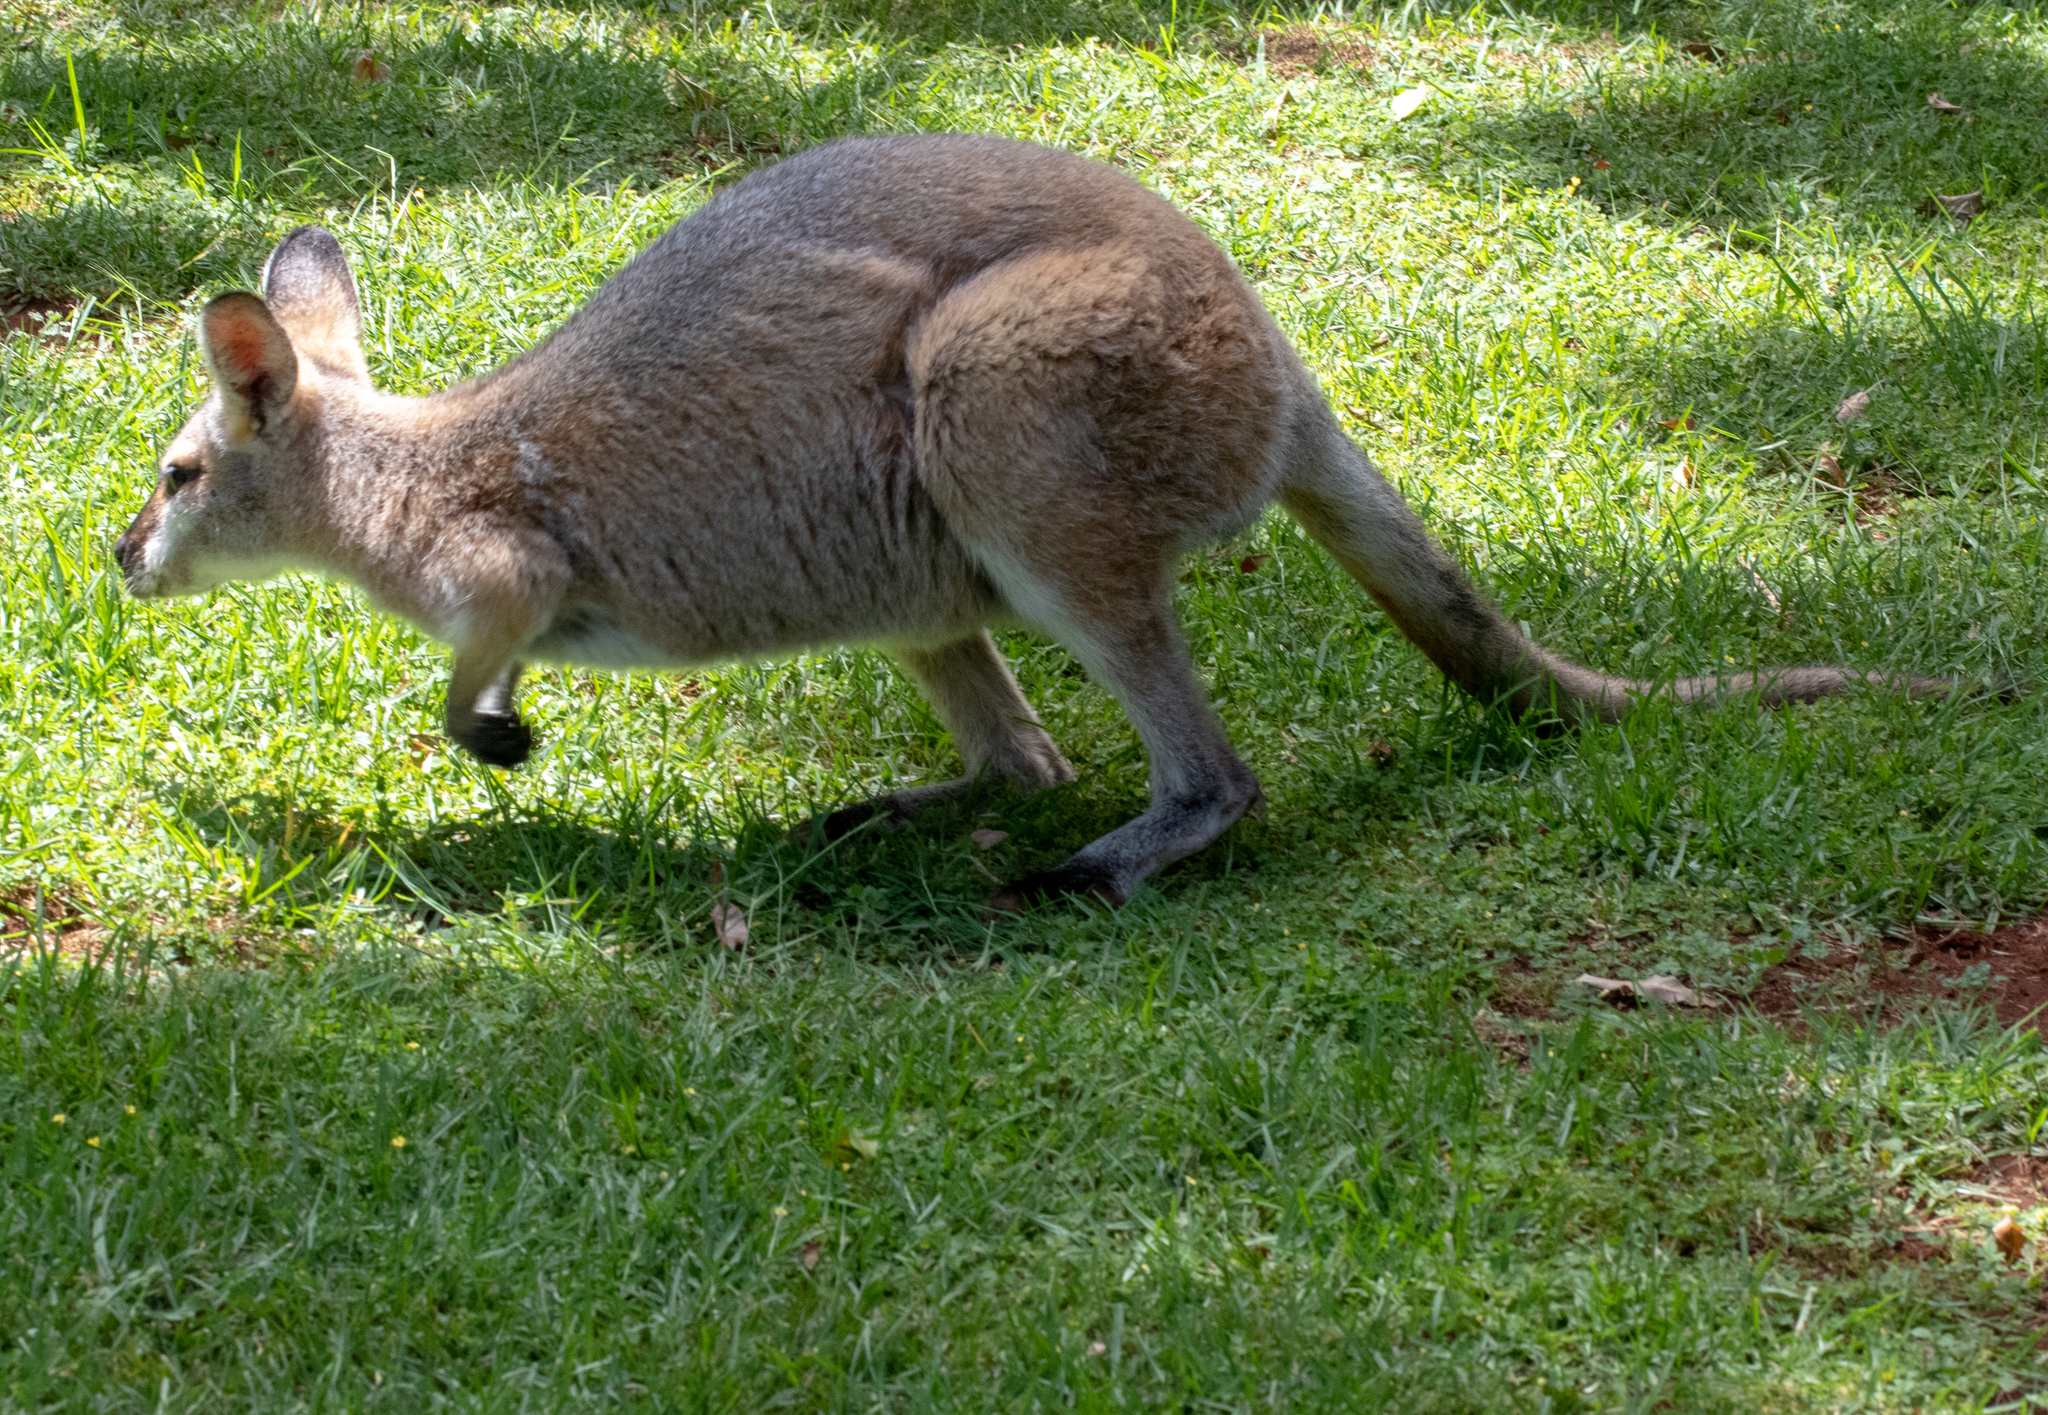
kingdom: Animalia
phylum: Chordata
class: Mammalia
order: Diprotodontia
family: Macropodidae
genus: Notamacropus
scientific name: Notamacropus rufogriseus
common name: Red-necked wallaby
